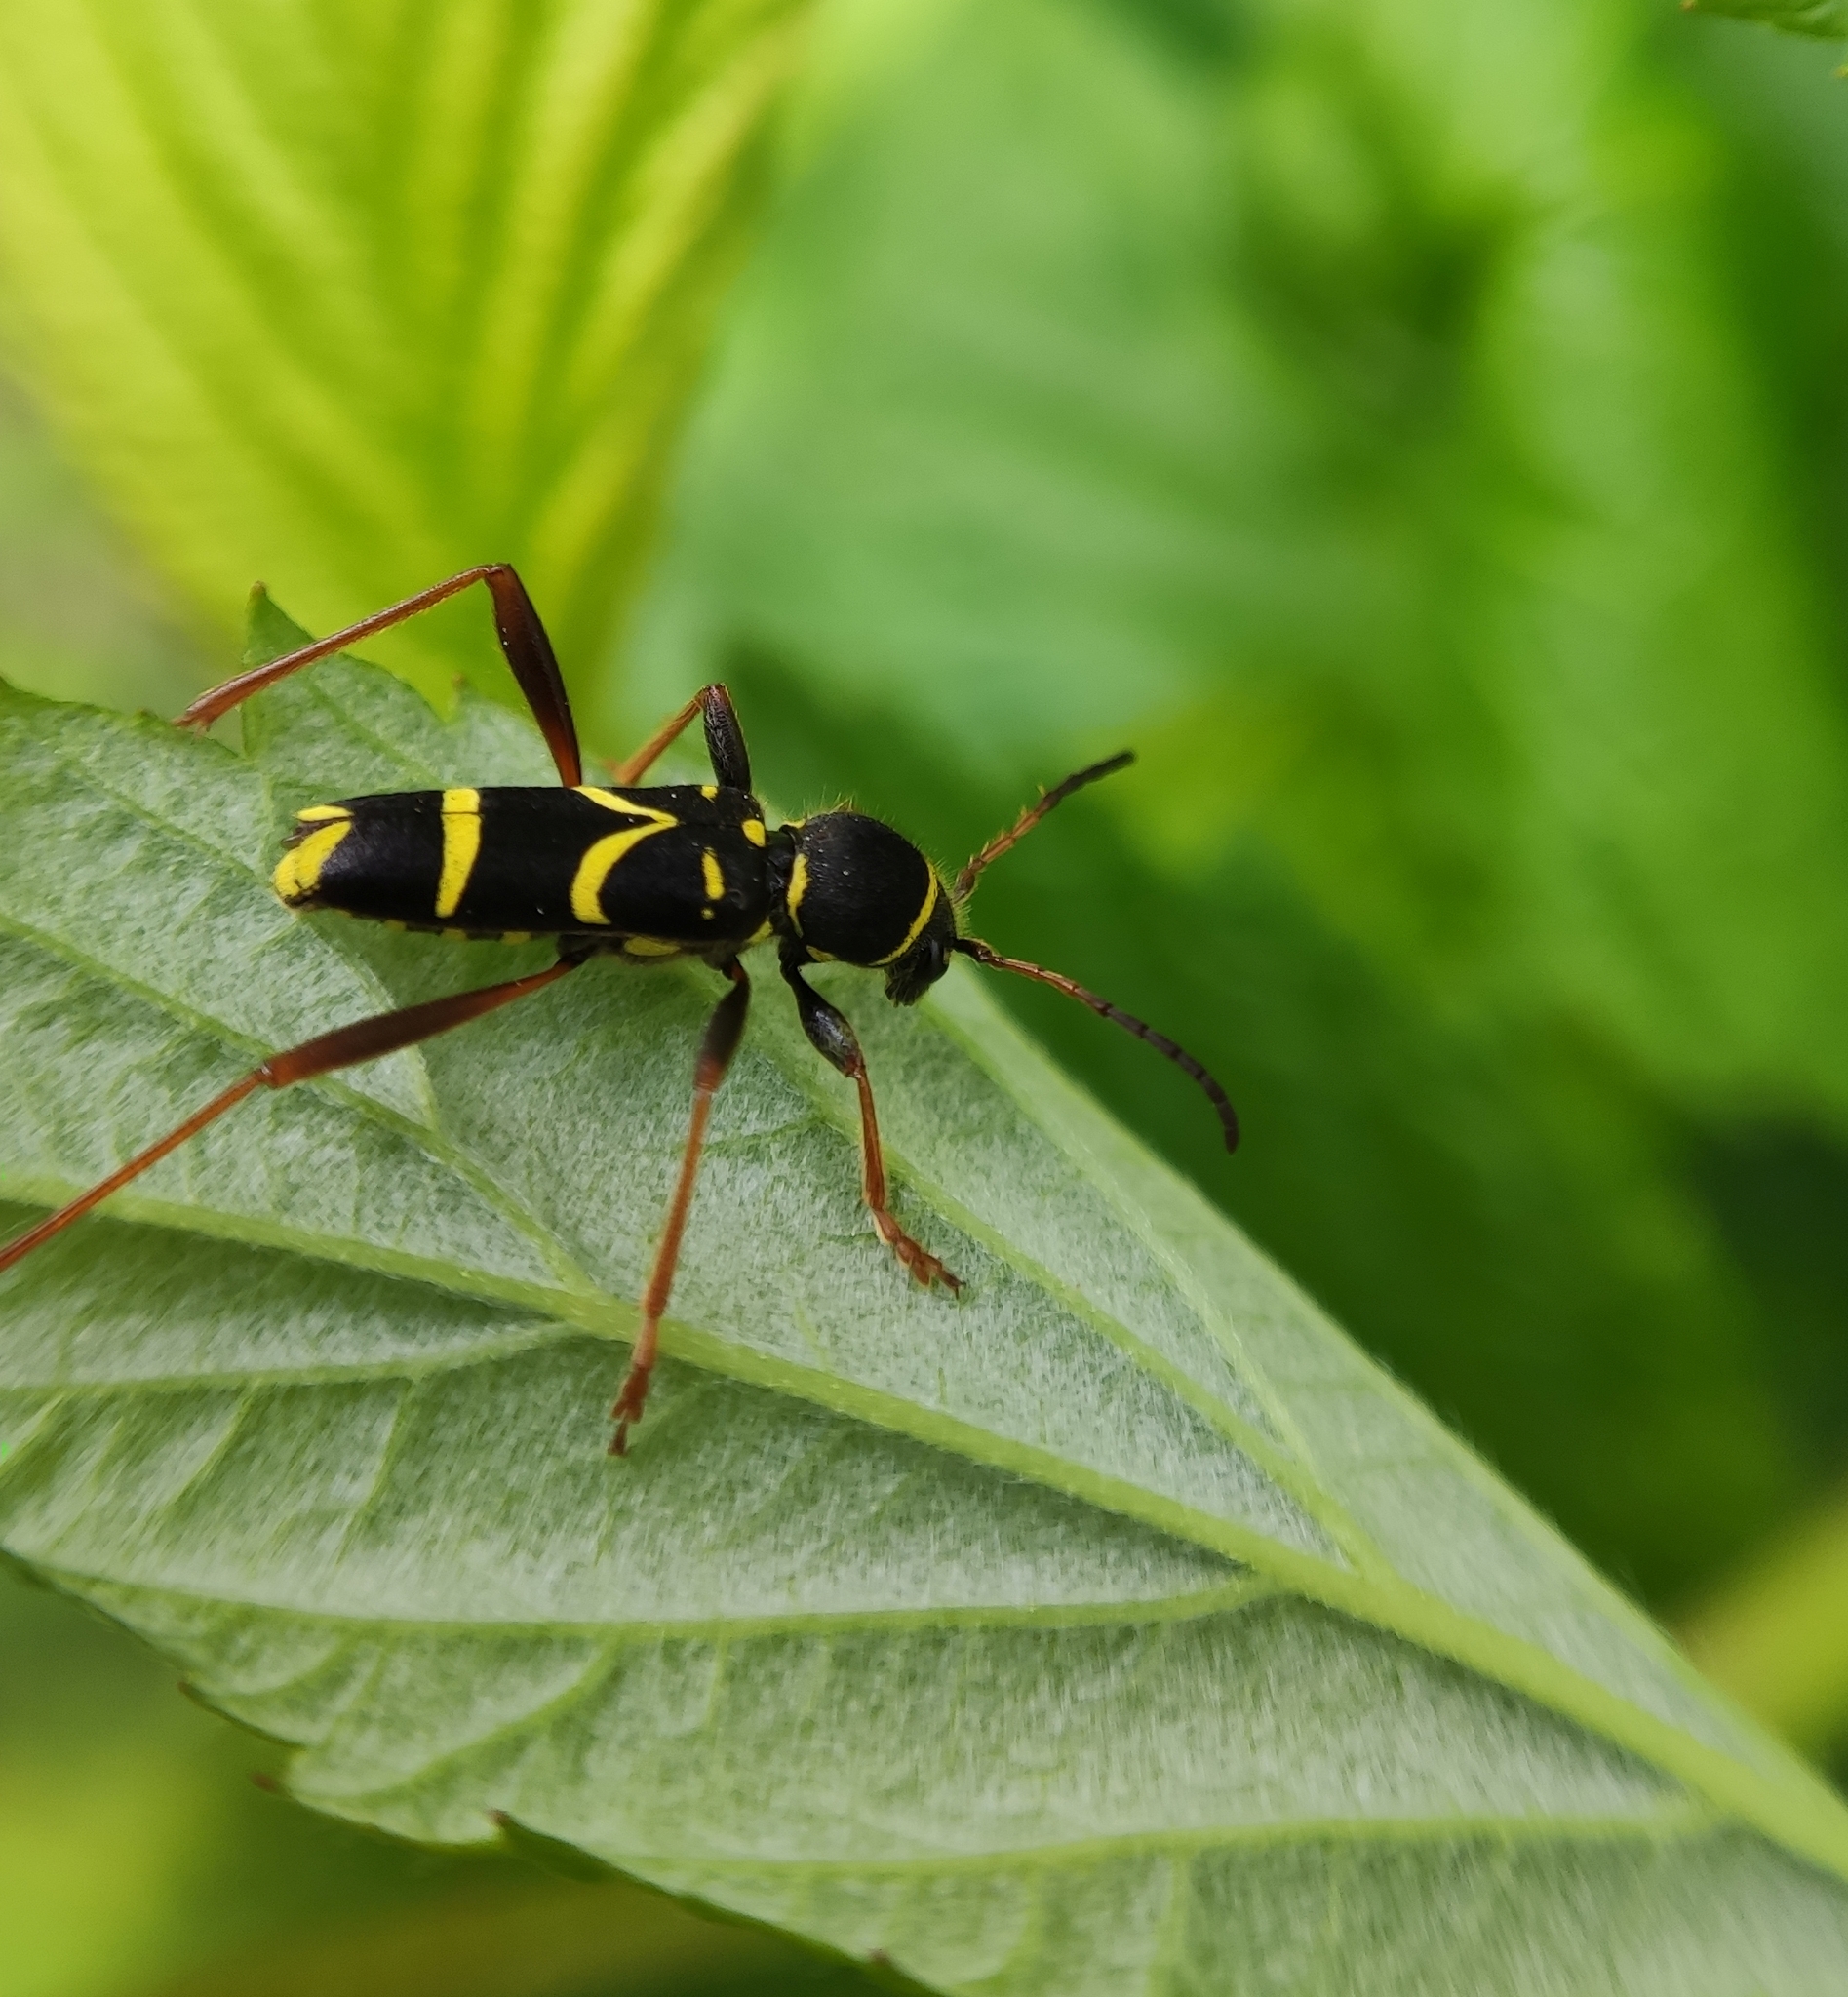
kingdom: Animalia
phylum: Arthropoda
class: Insecta
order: Coleoptera
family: Cerambycidae
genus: Clytus
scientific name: Clytus arietis
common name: Wasp beetle
